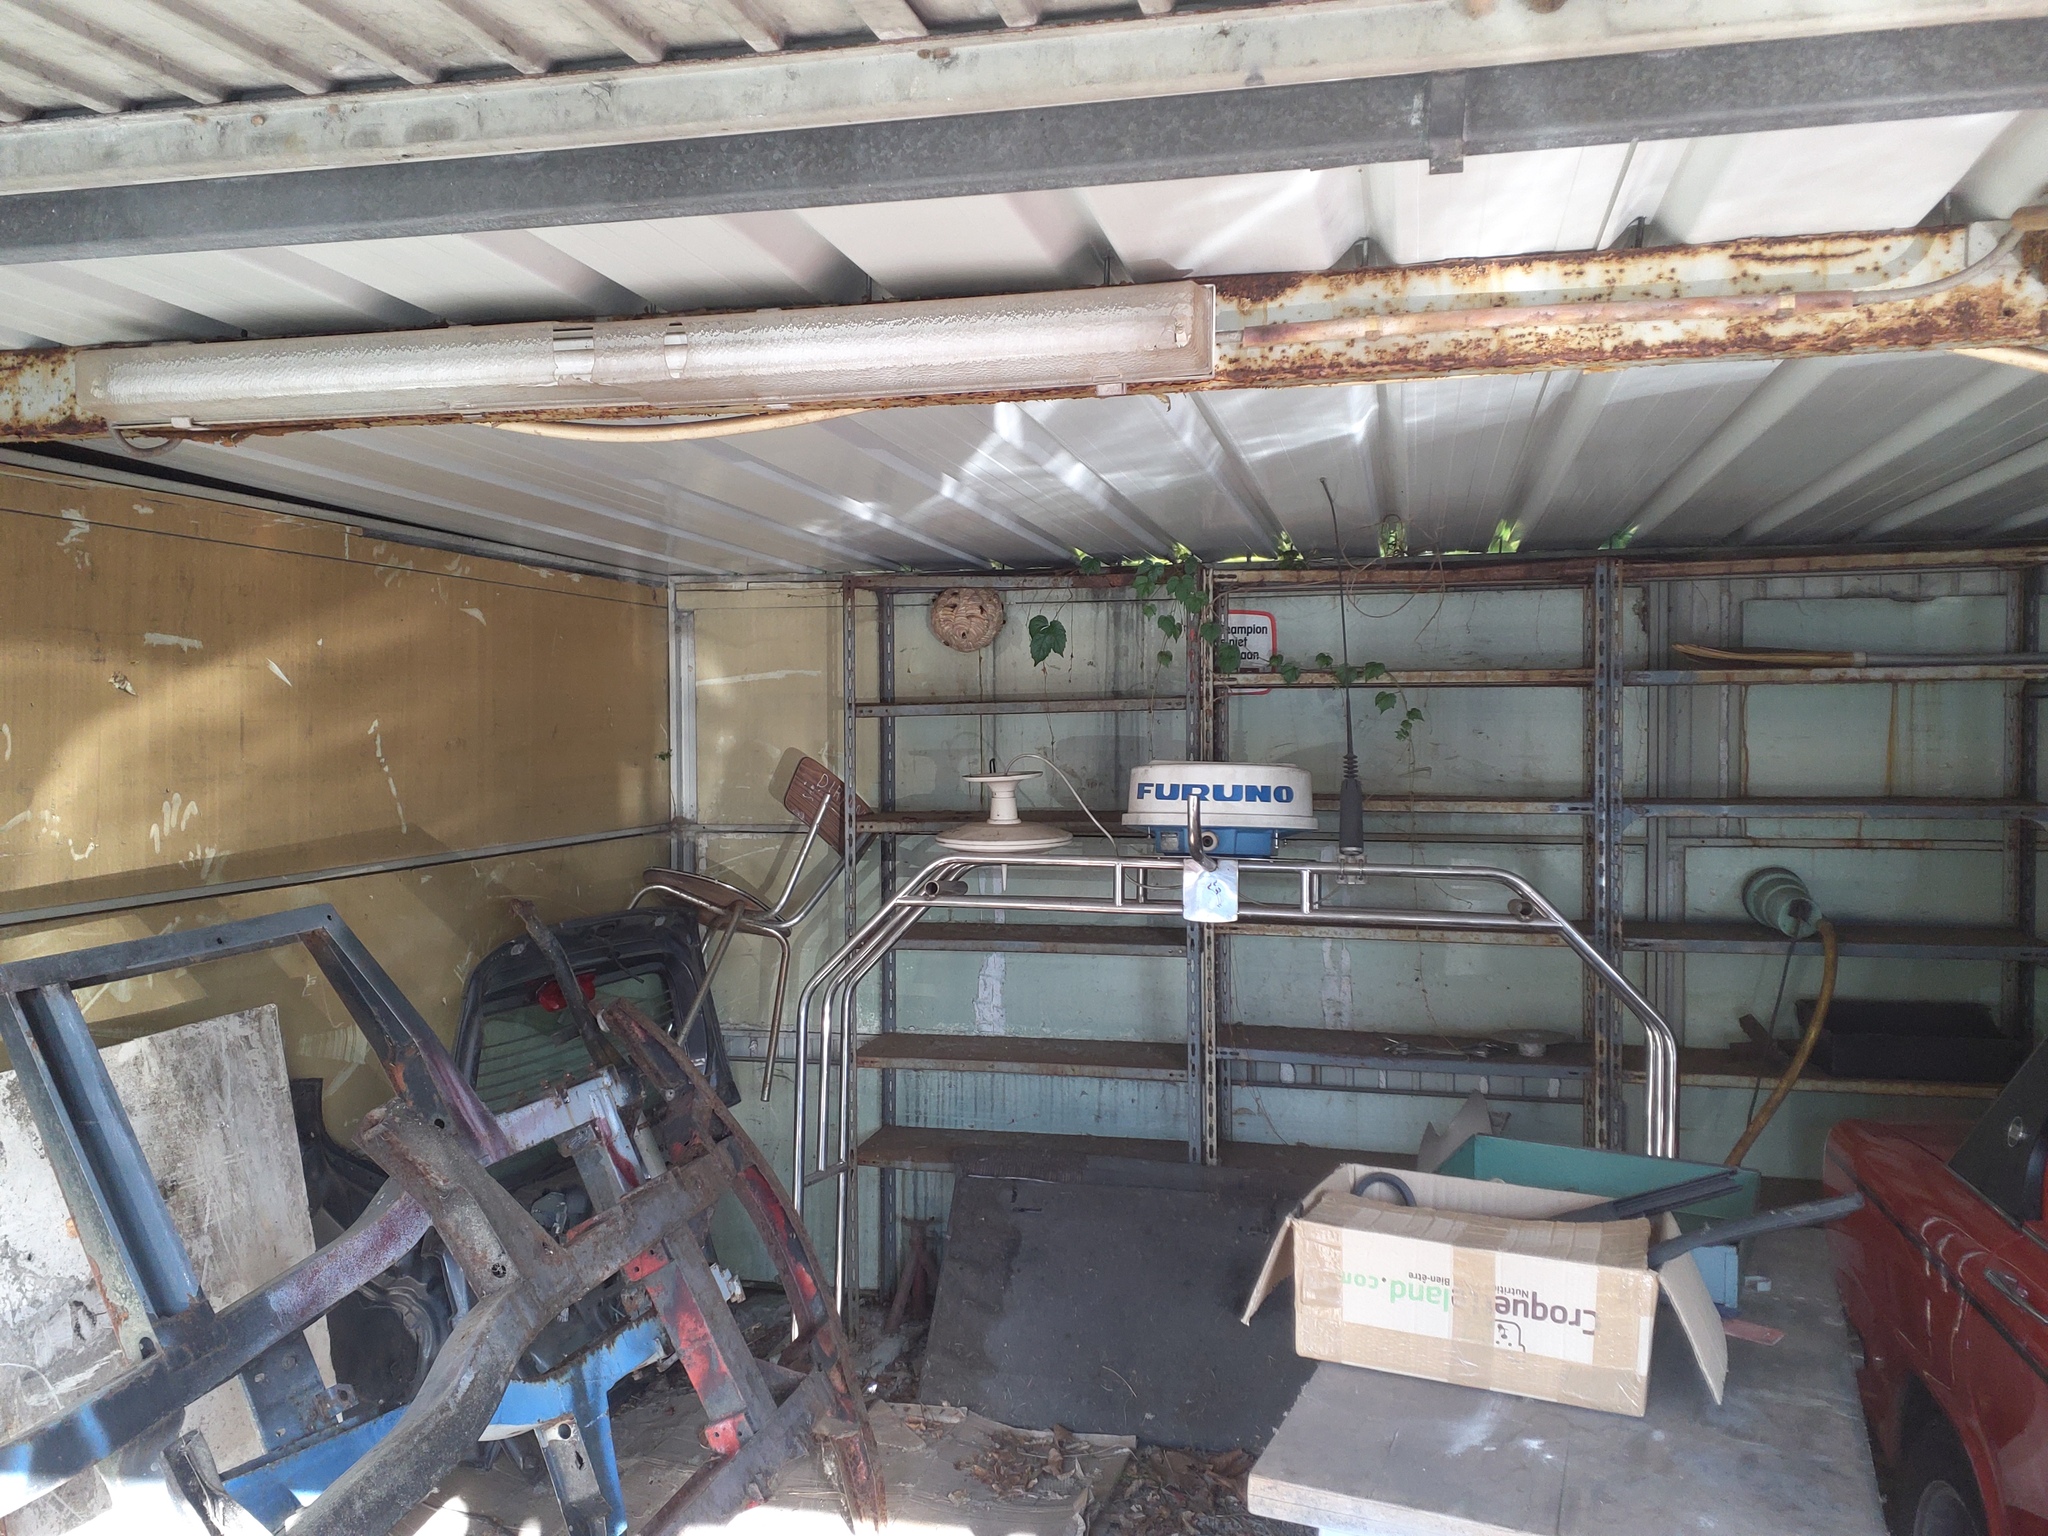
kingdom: Animalia
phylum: Arthropoda
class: Insecta
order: Hymenoptera
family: Vespidae
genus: Vespa
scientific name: Vespa velutina
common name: Asian hornet
